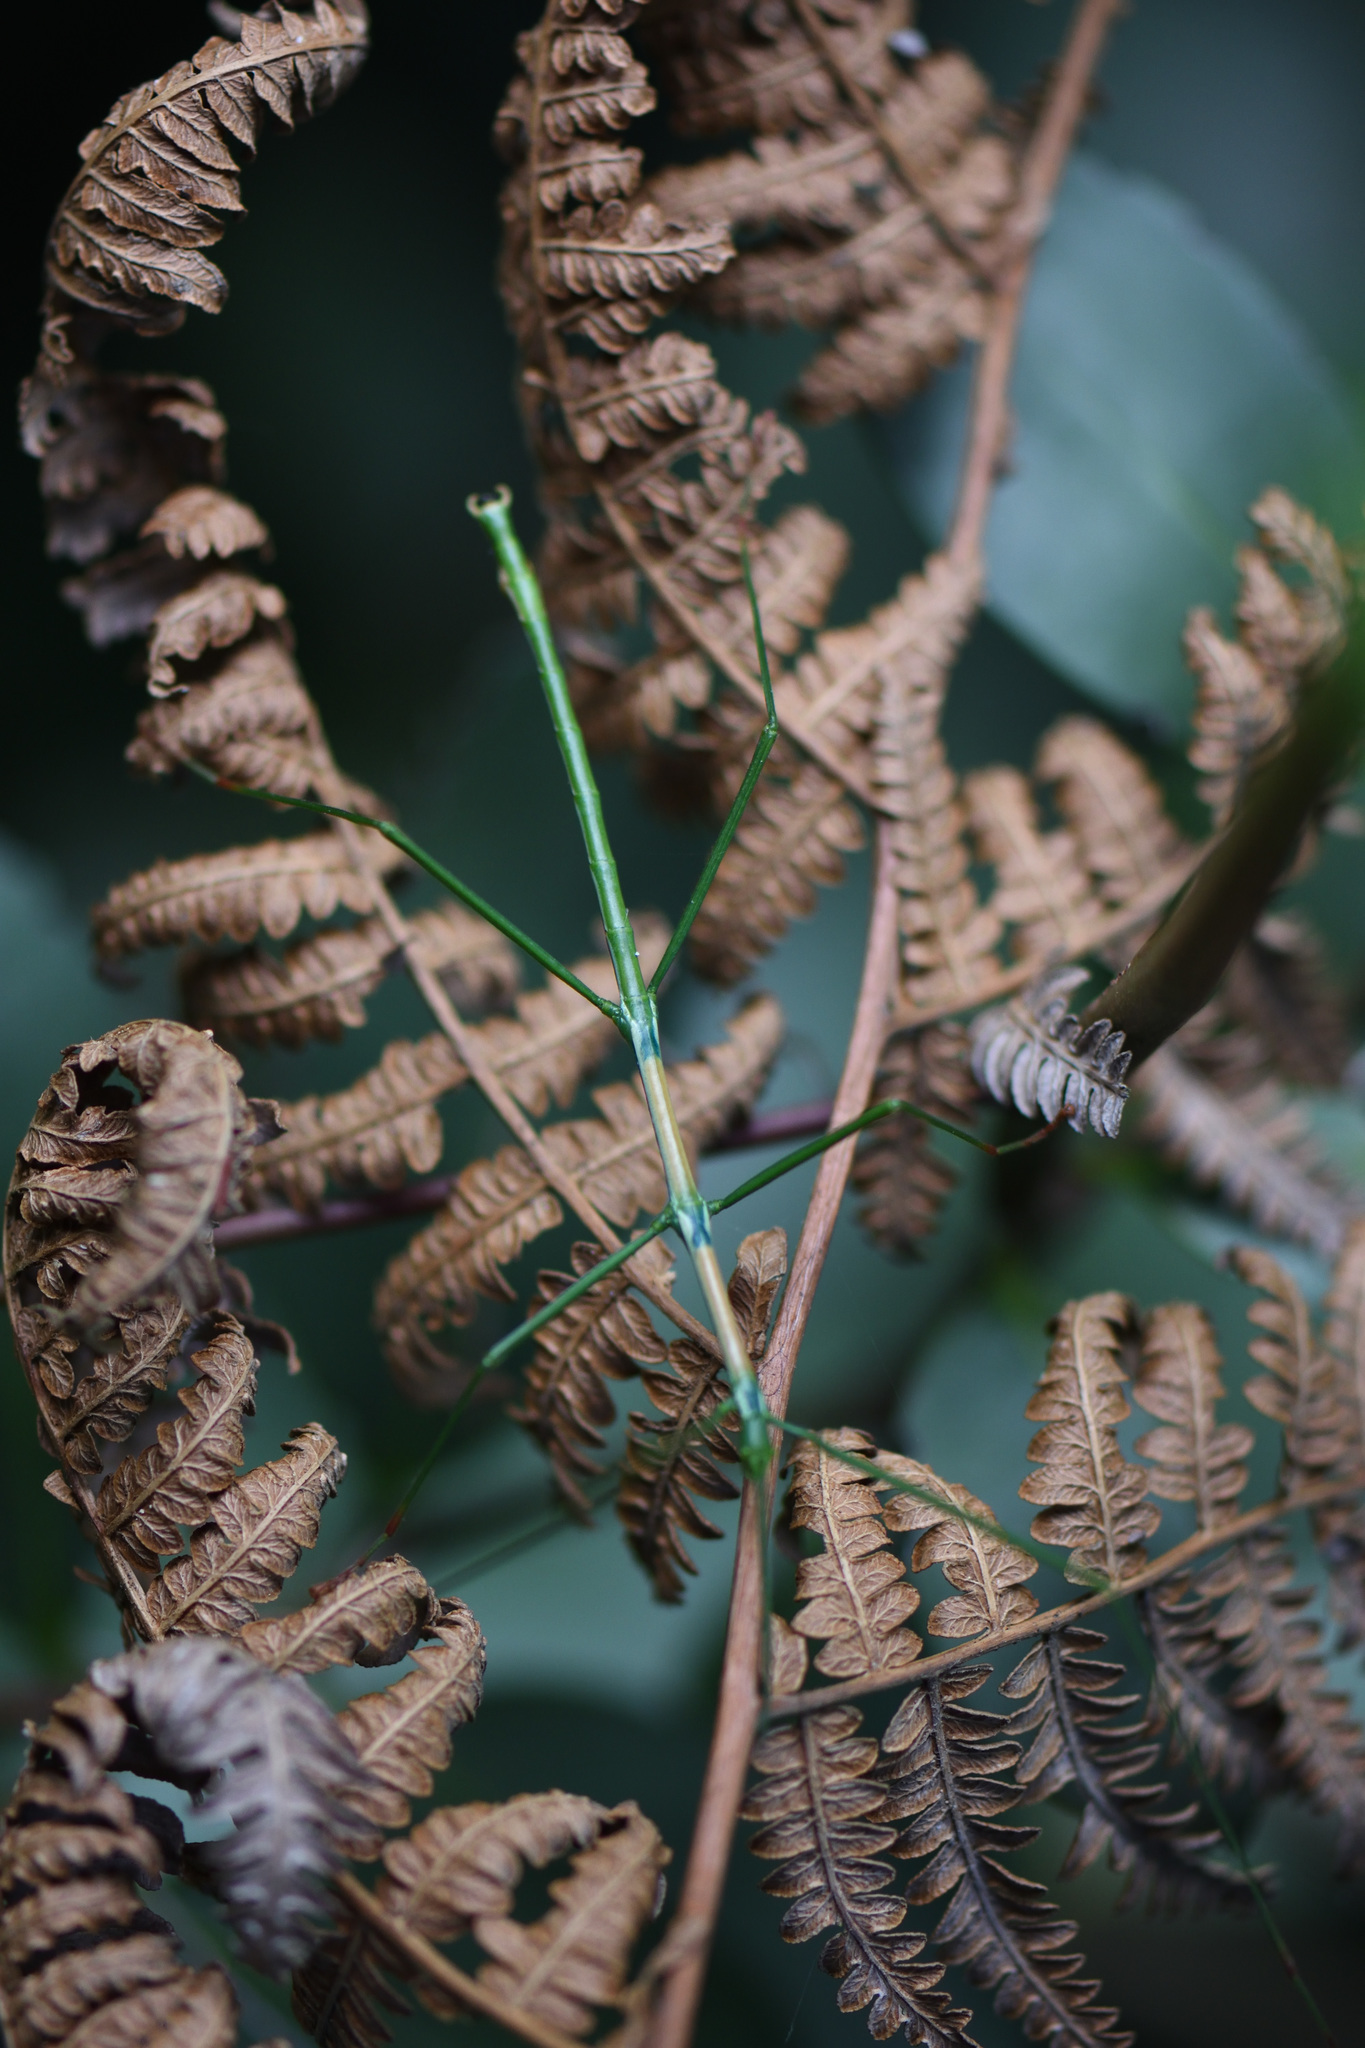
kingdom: Animalia
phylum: Arthropoda
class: Insecta
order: Phasmida
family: Bacillidae
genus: Phalces
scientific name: Phalces brevis
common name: Cape stick insect
